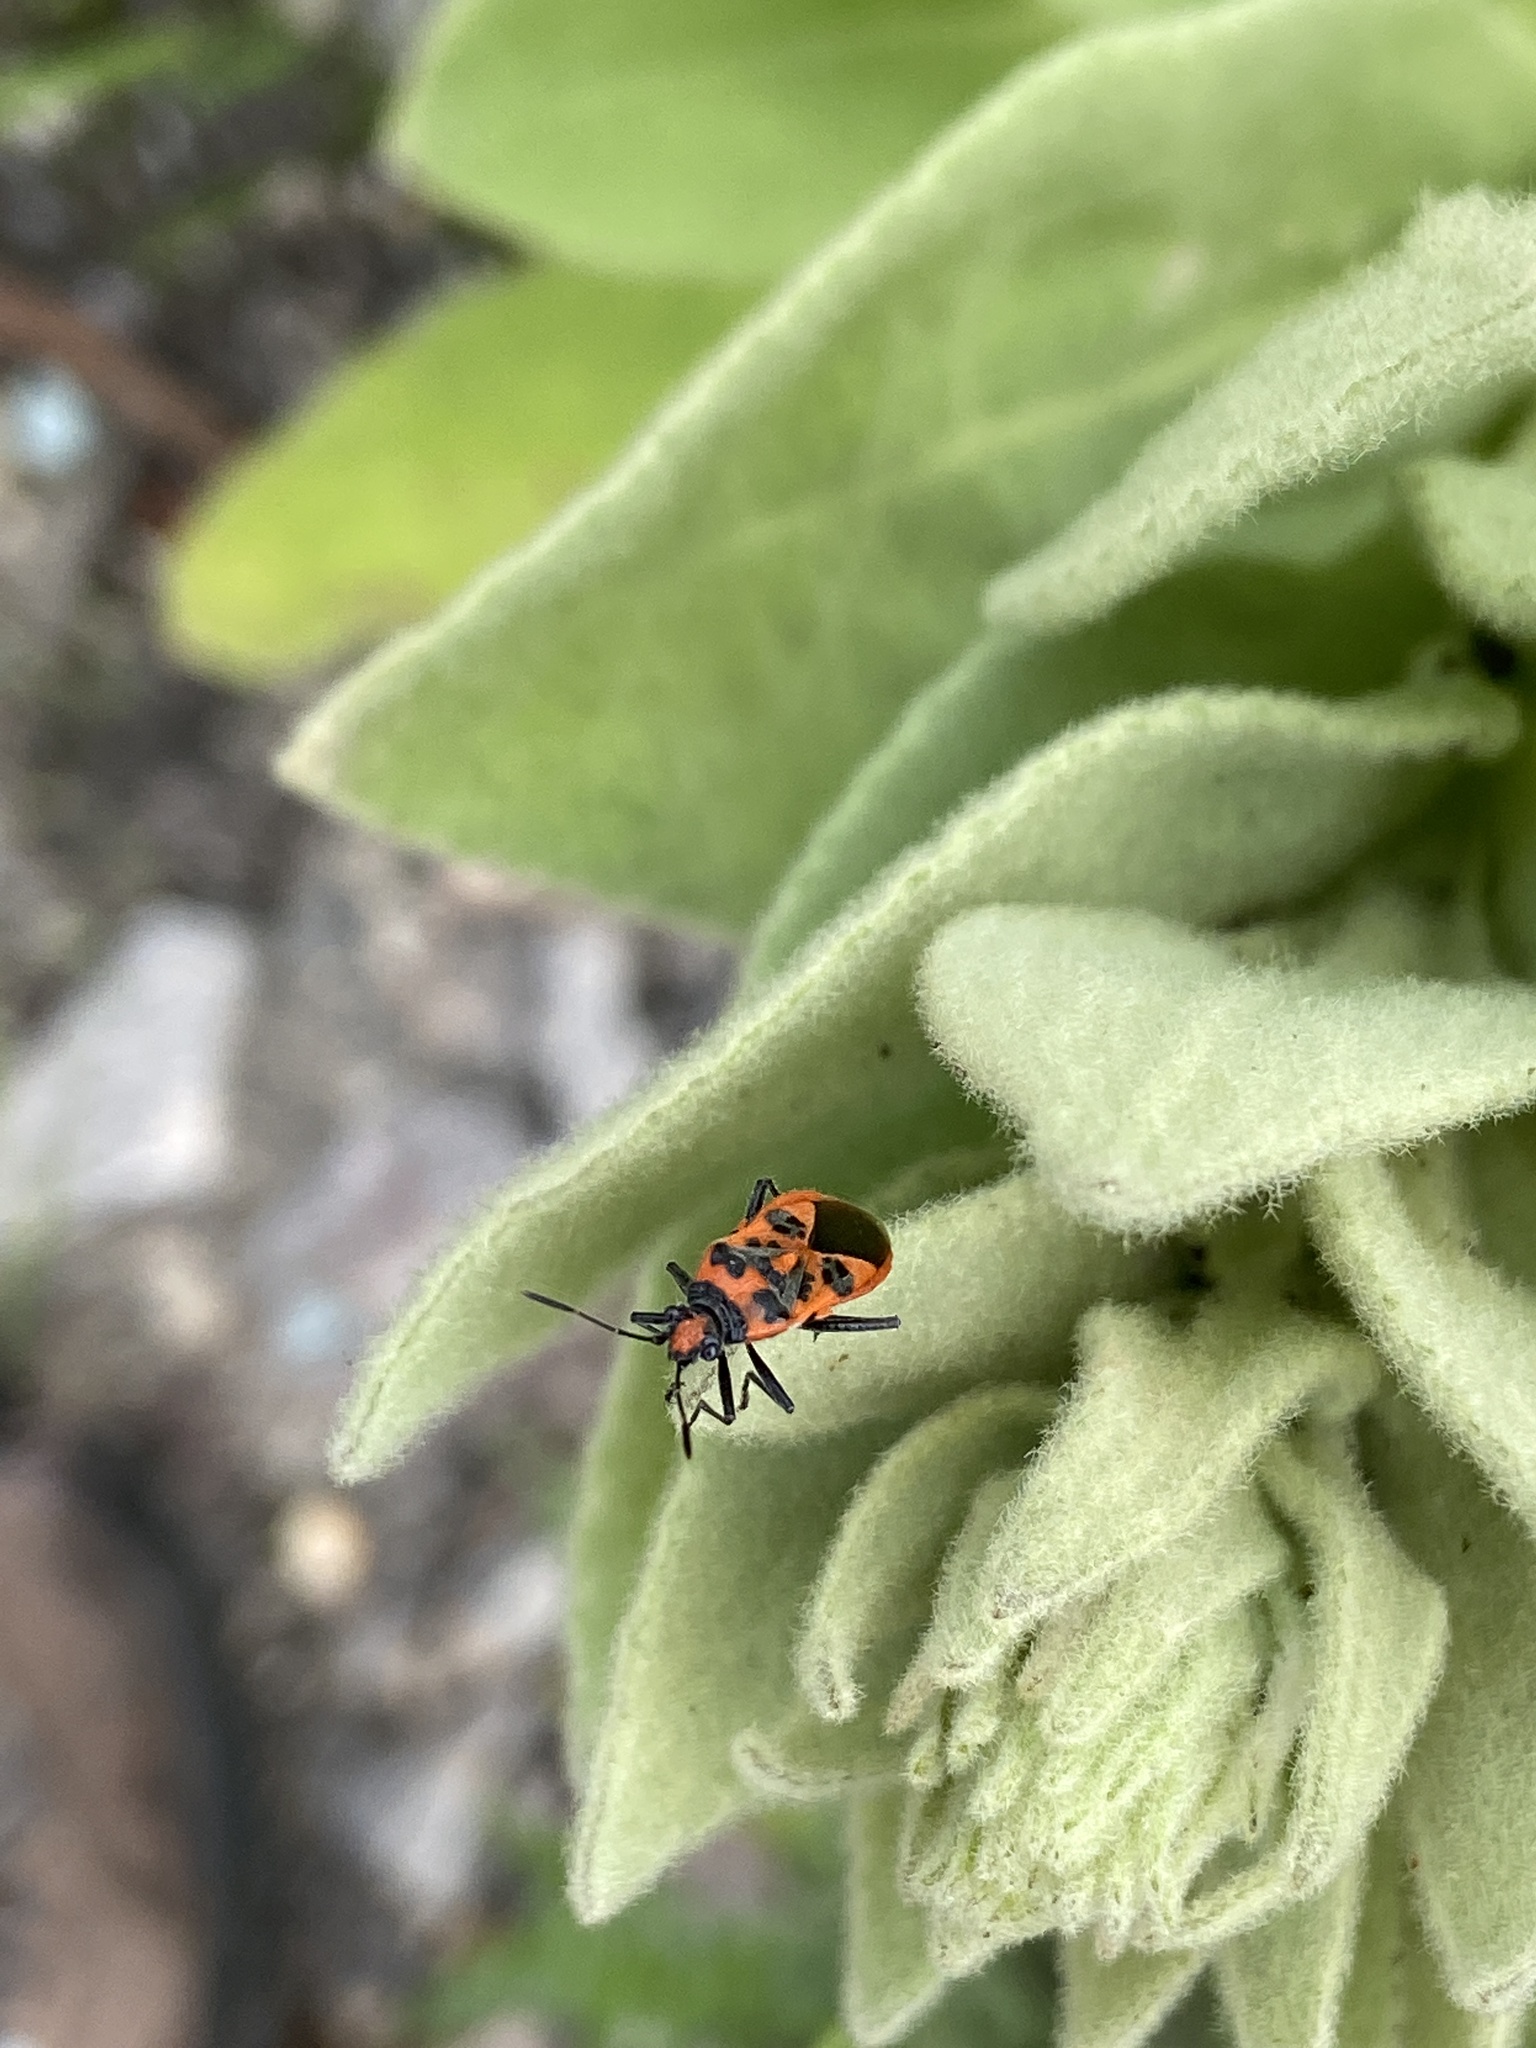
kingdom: Animalia
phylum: Arthropoda
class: Insecta
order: Hemiptera
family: Rhopalidae
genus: Corizus
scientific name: Corizus hyoscyami
